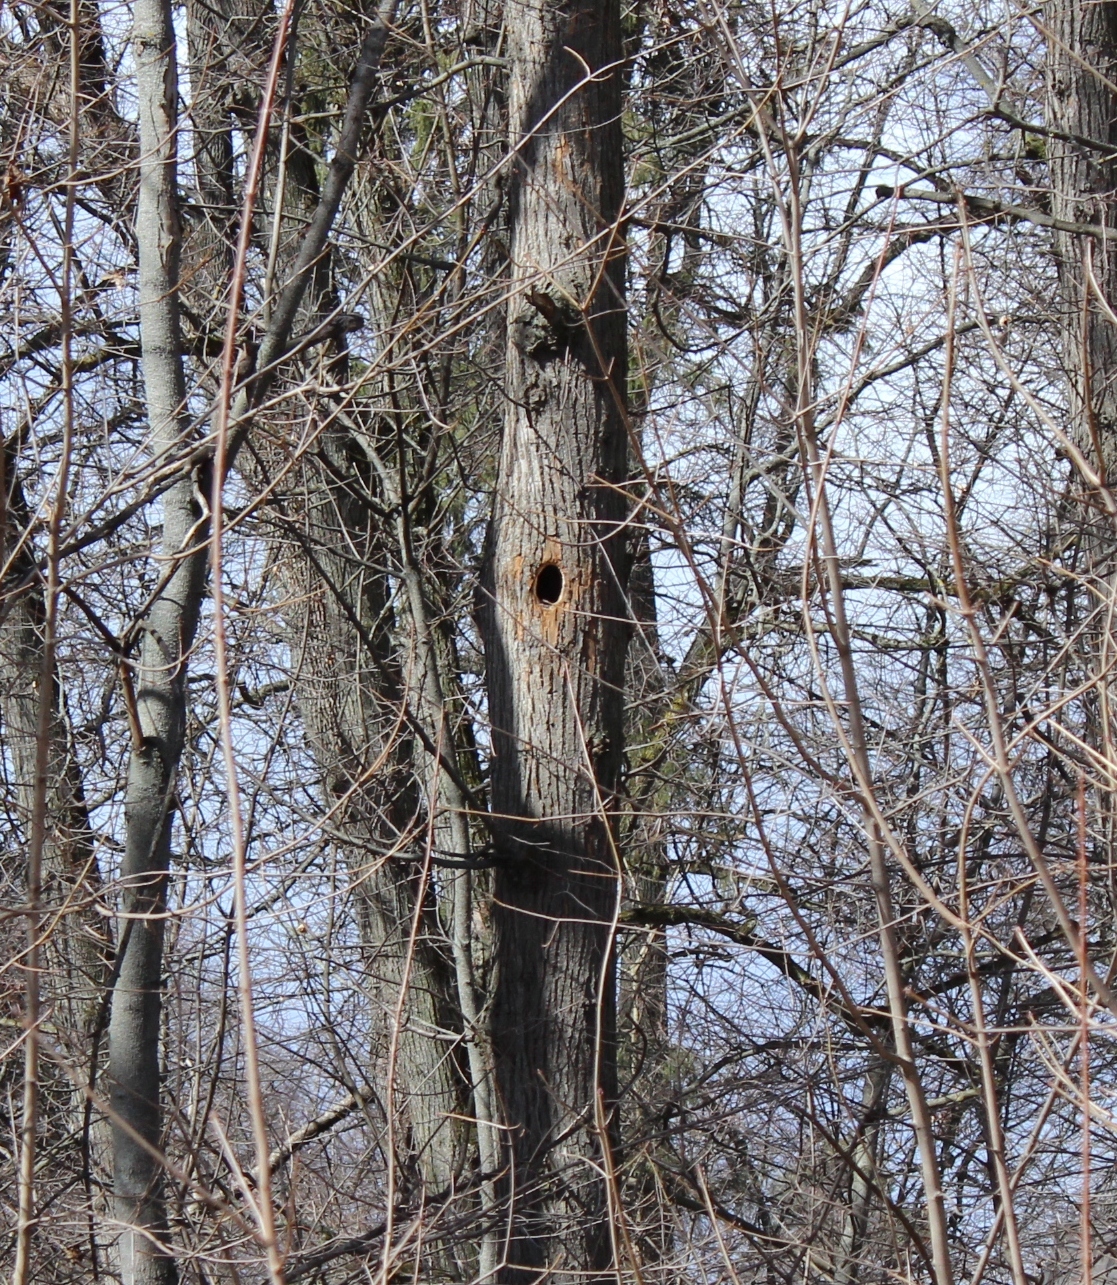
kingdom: Animalia
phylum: Chordata
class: Aves
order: Piciformes
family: Picidae
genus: Dryocopus
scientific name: Dryocopus martius
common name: Black woodpecker
